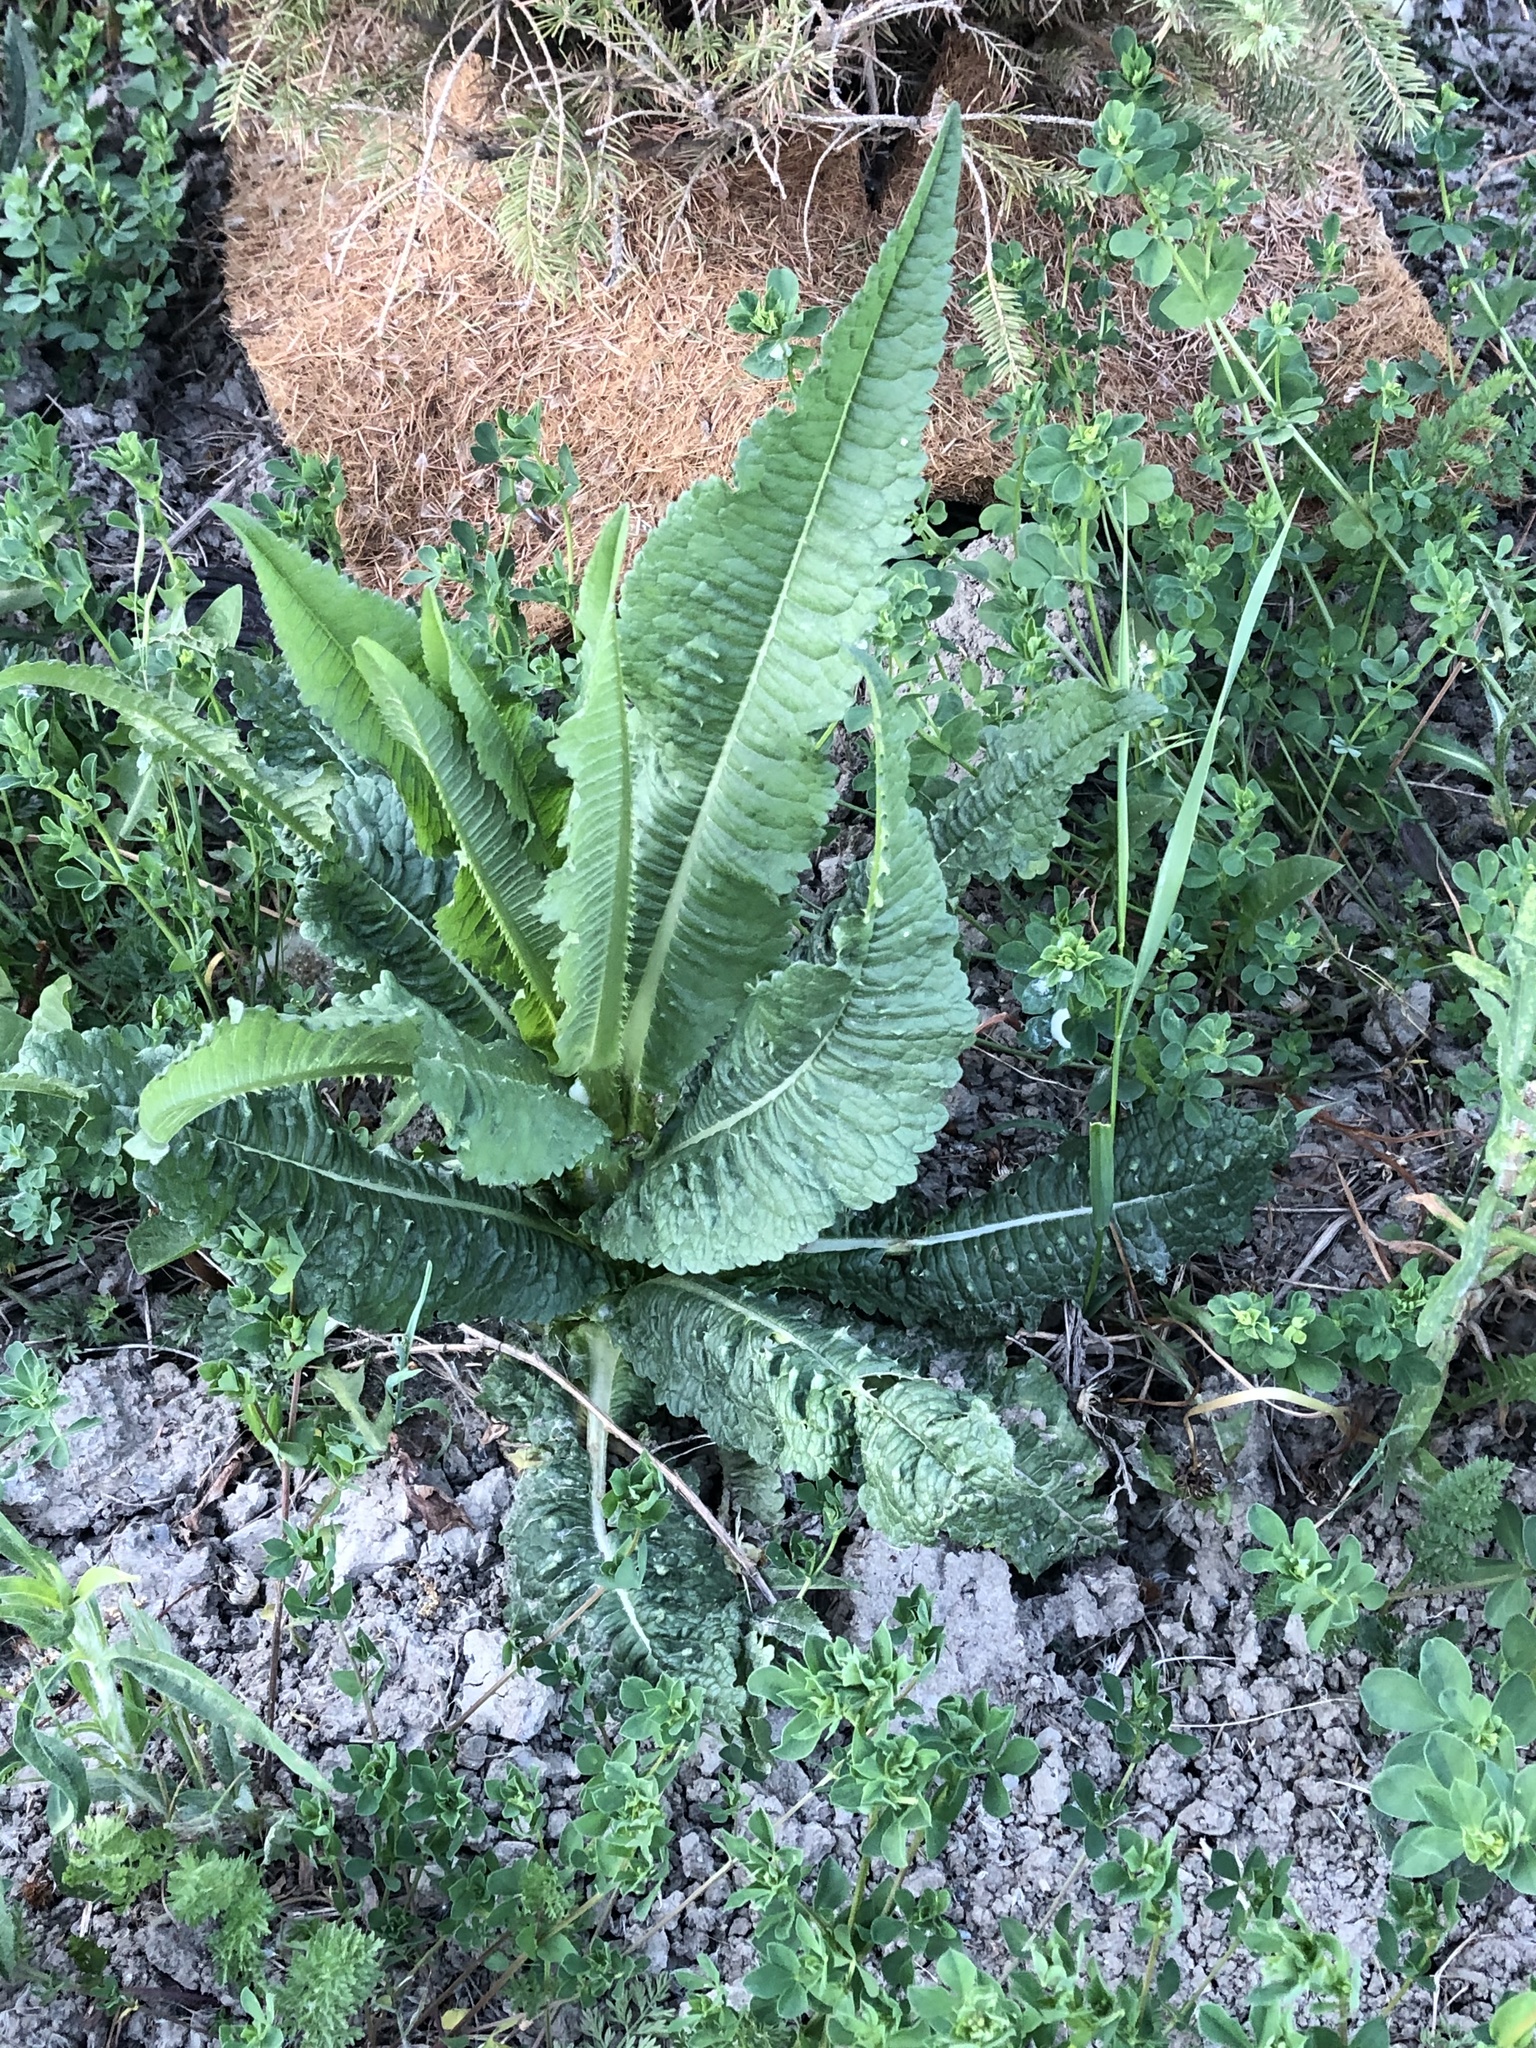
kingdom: Plantae
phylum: Tracheophyta
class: Magnoliopsida
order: Dipsacales
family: Caprifoliaceae
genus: Dipsacus
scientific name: Dipsacus fullonum
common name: Teasel
